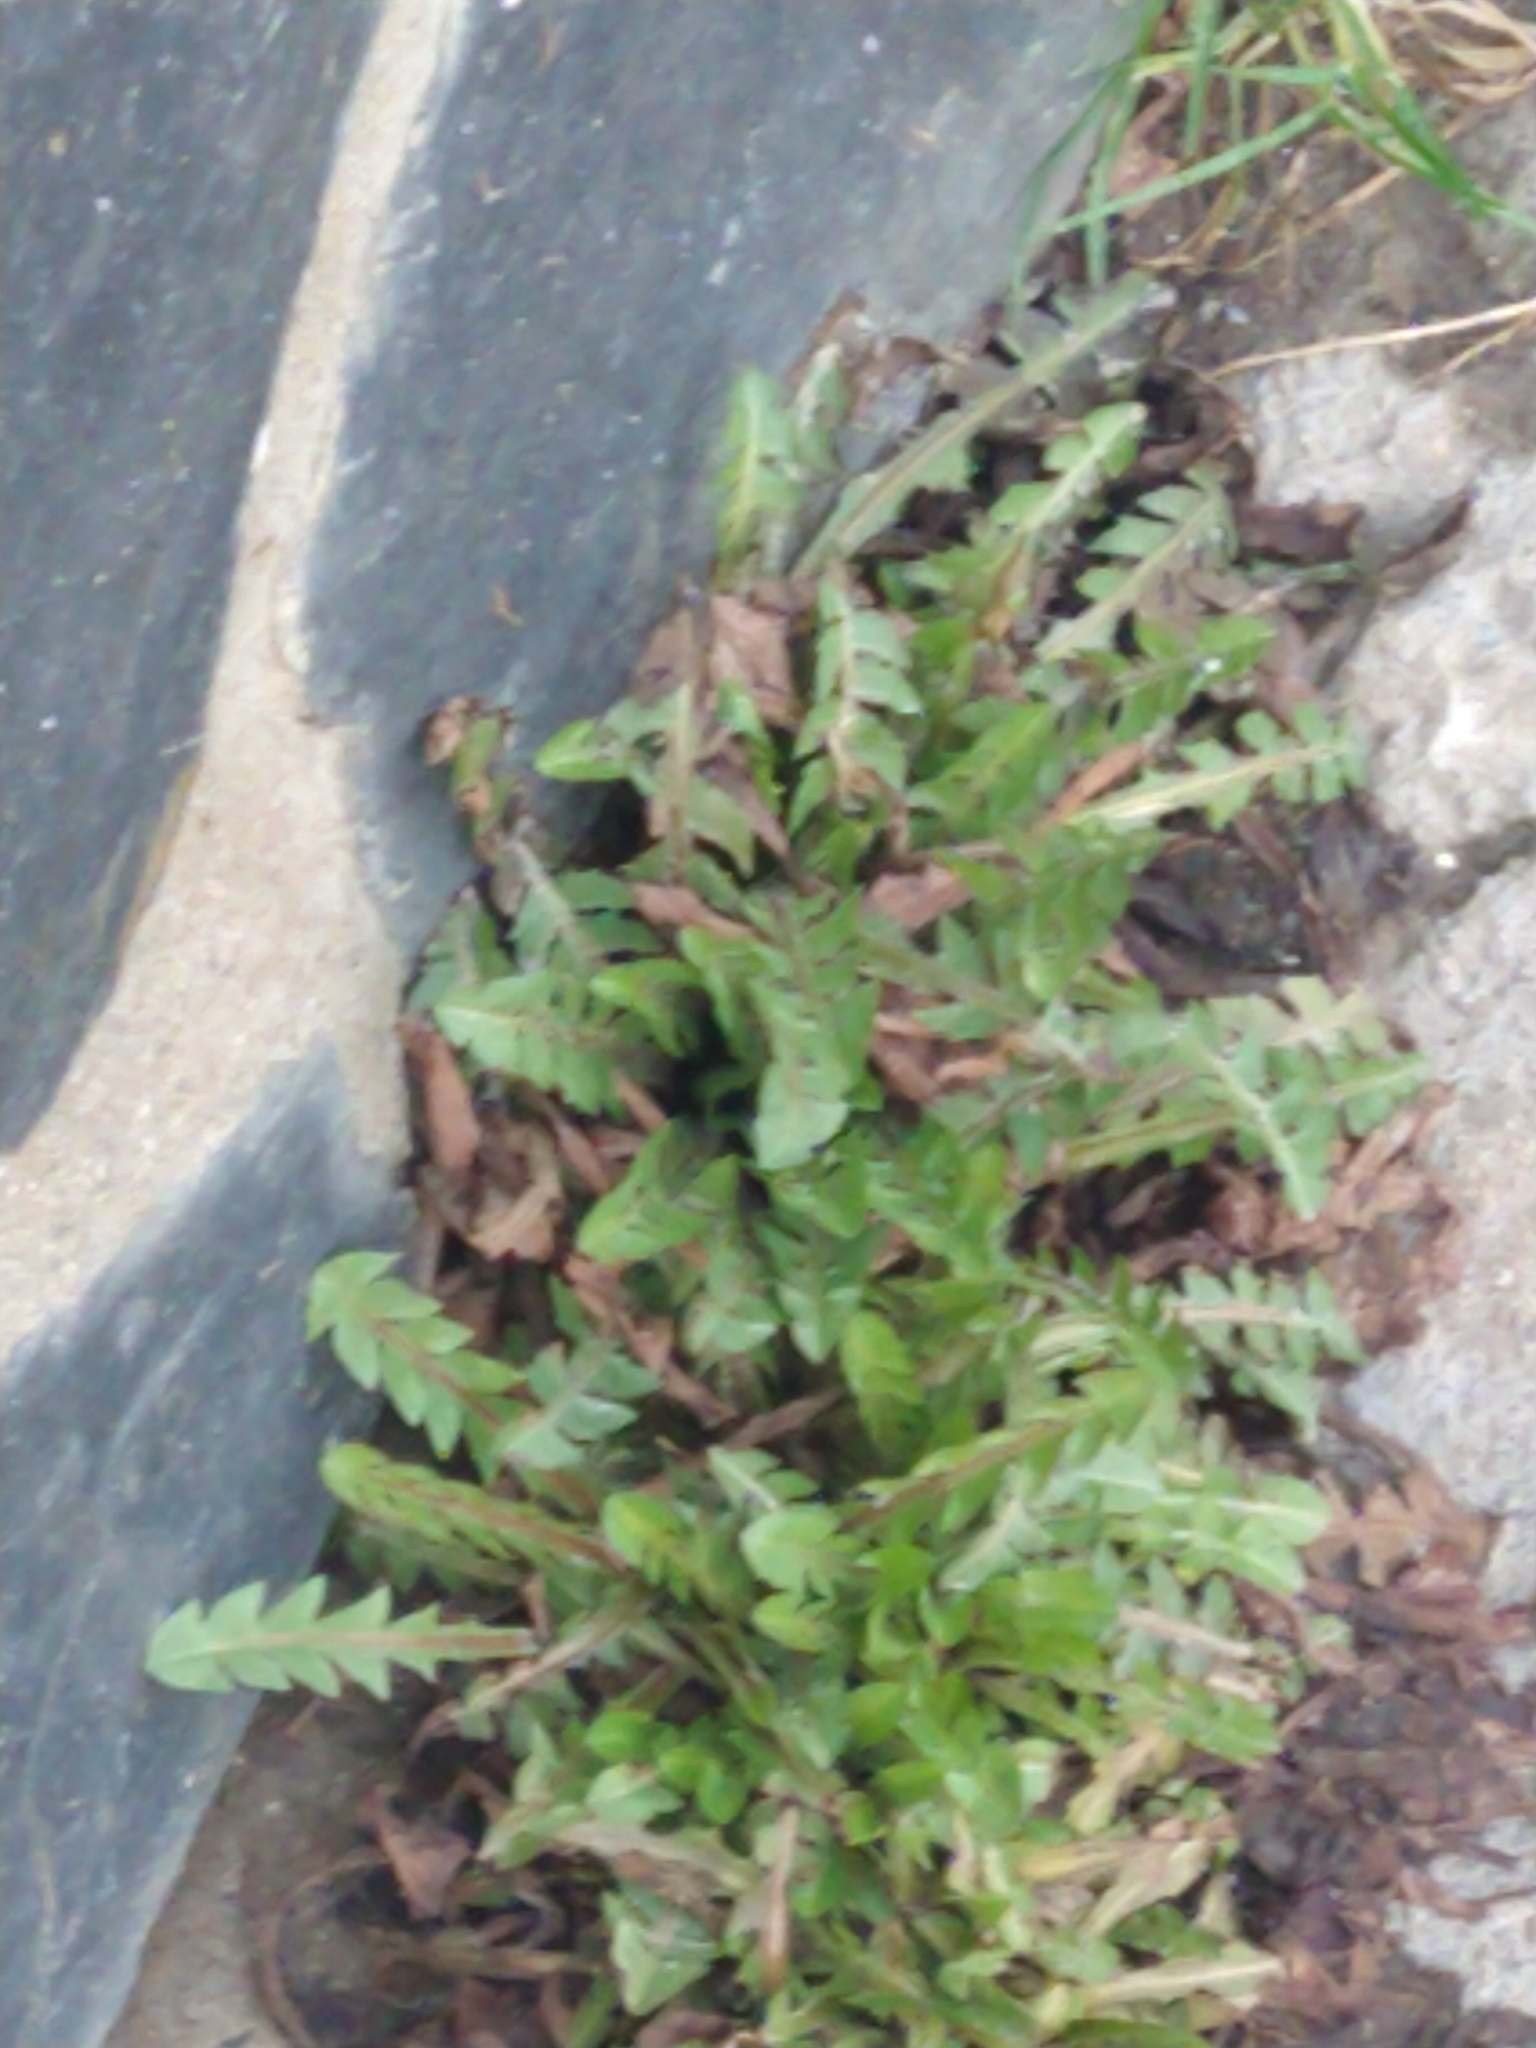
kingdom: Plantae
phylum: Tracheophyta
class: Magnoliopsida
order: Asterales
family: Asteraceae
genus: Taraxacum
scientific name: Taraxacum officinale
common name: Common dandelion
